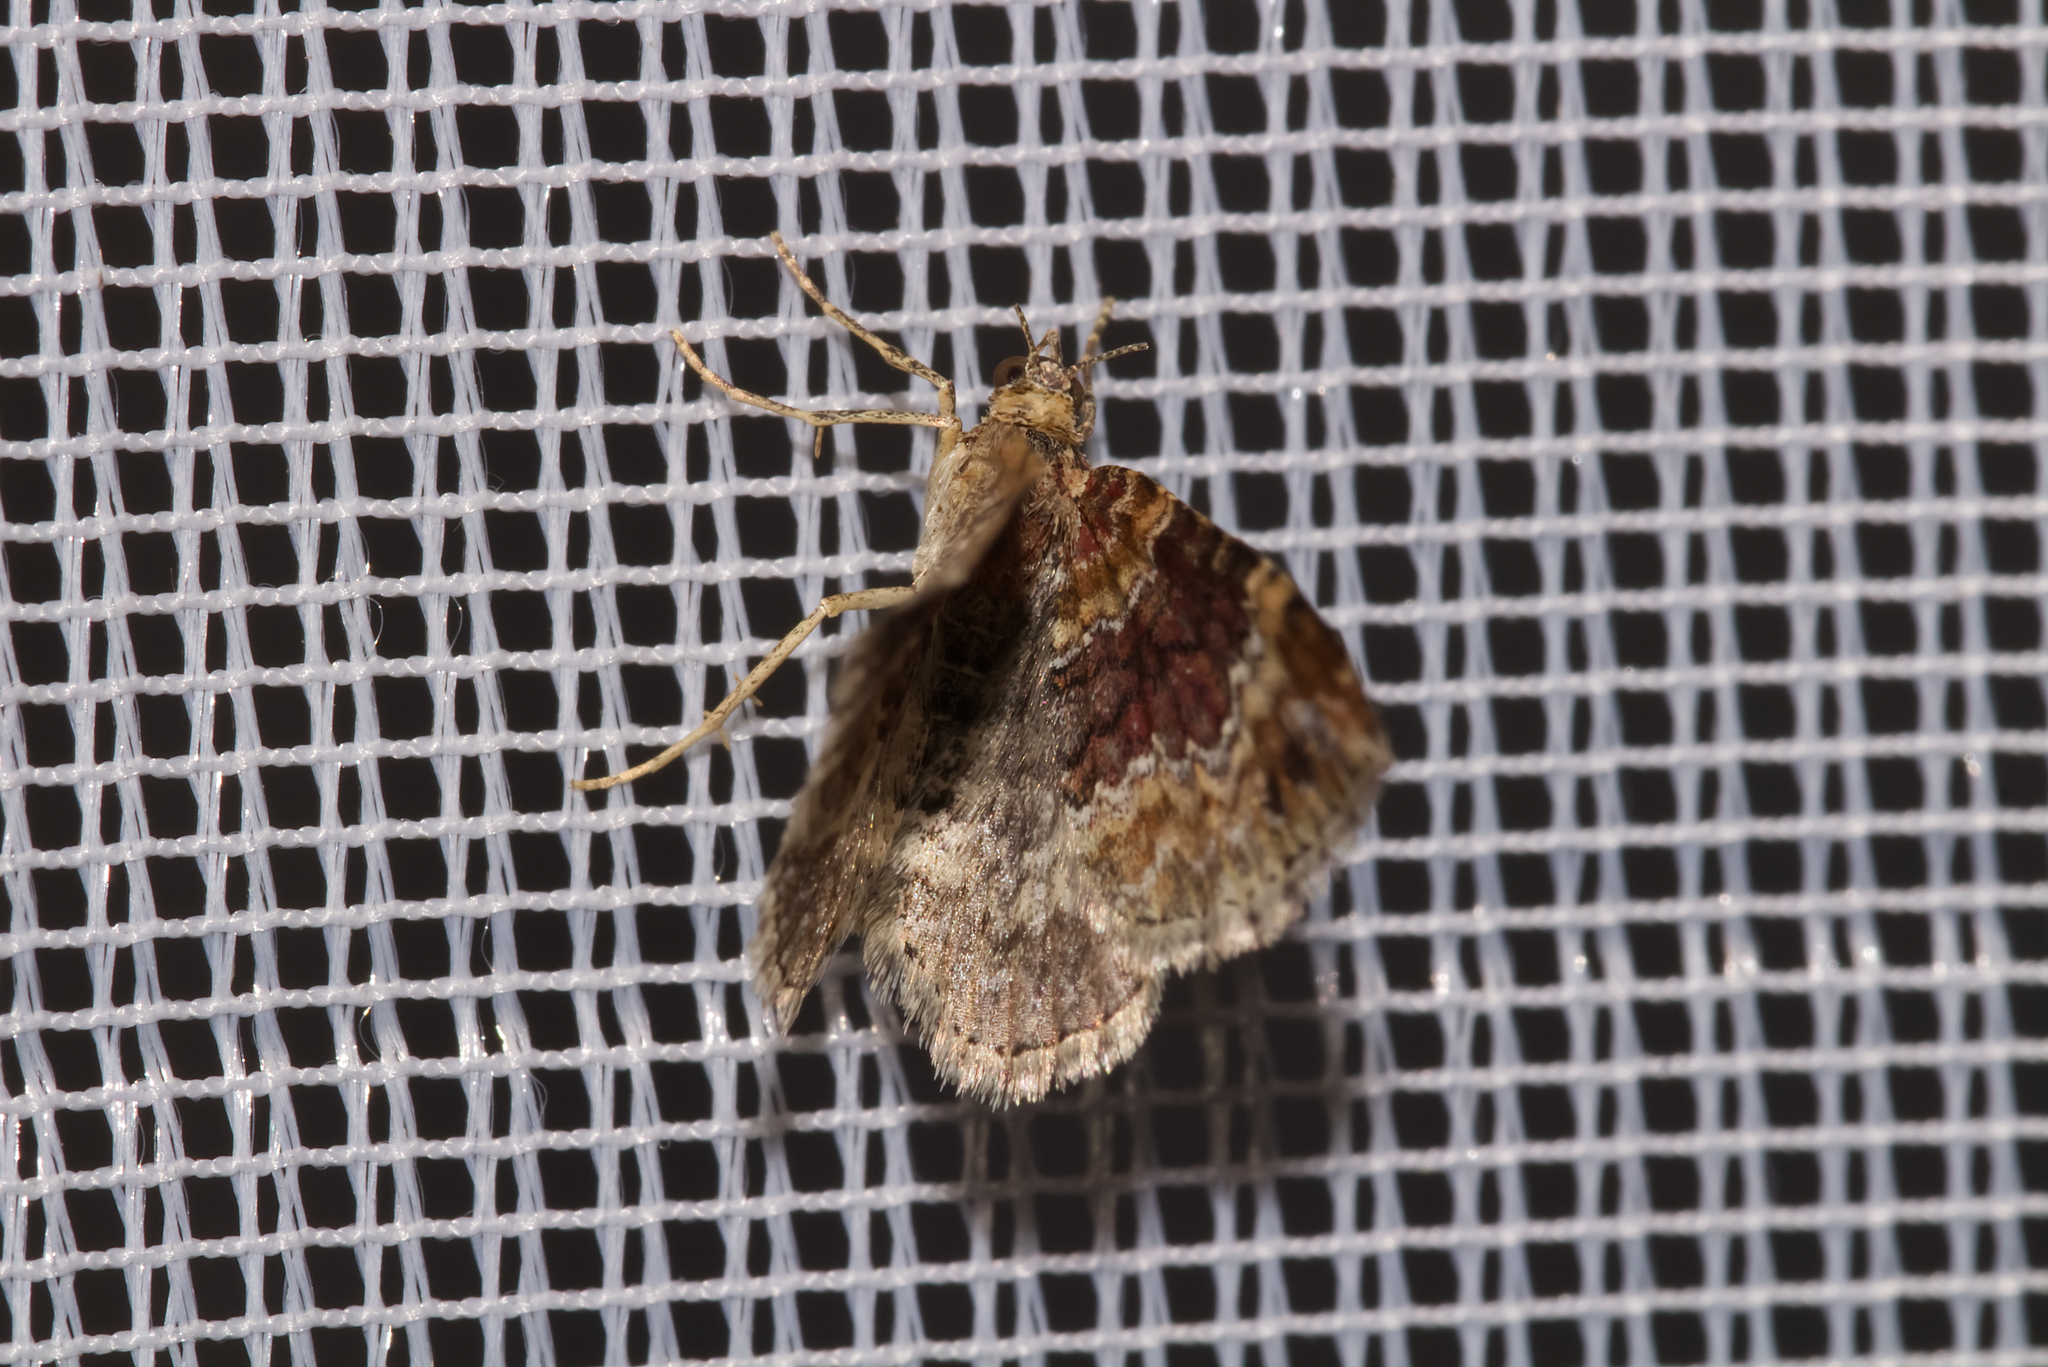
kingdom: Animalia
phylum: Arthropoda
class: Insecta
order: Lepidoptera
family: Geometridae
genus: Xanthorhoe
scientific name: Xanthorhoe spadicearia
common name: Red twin-spot carpet
